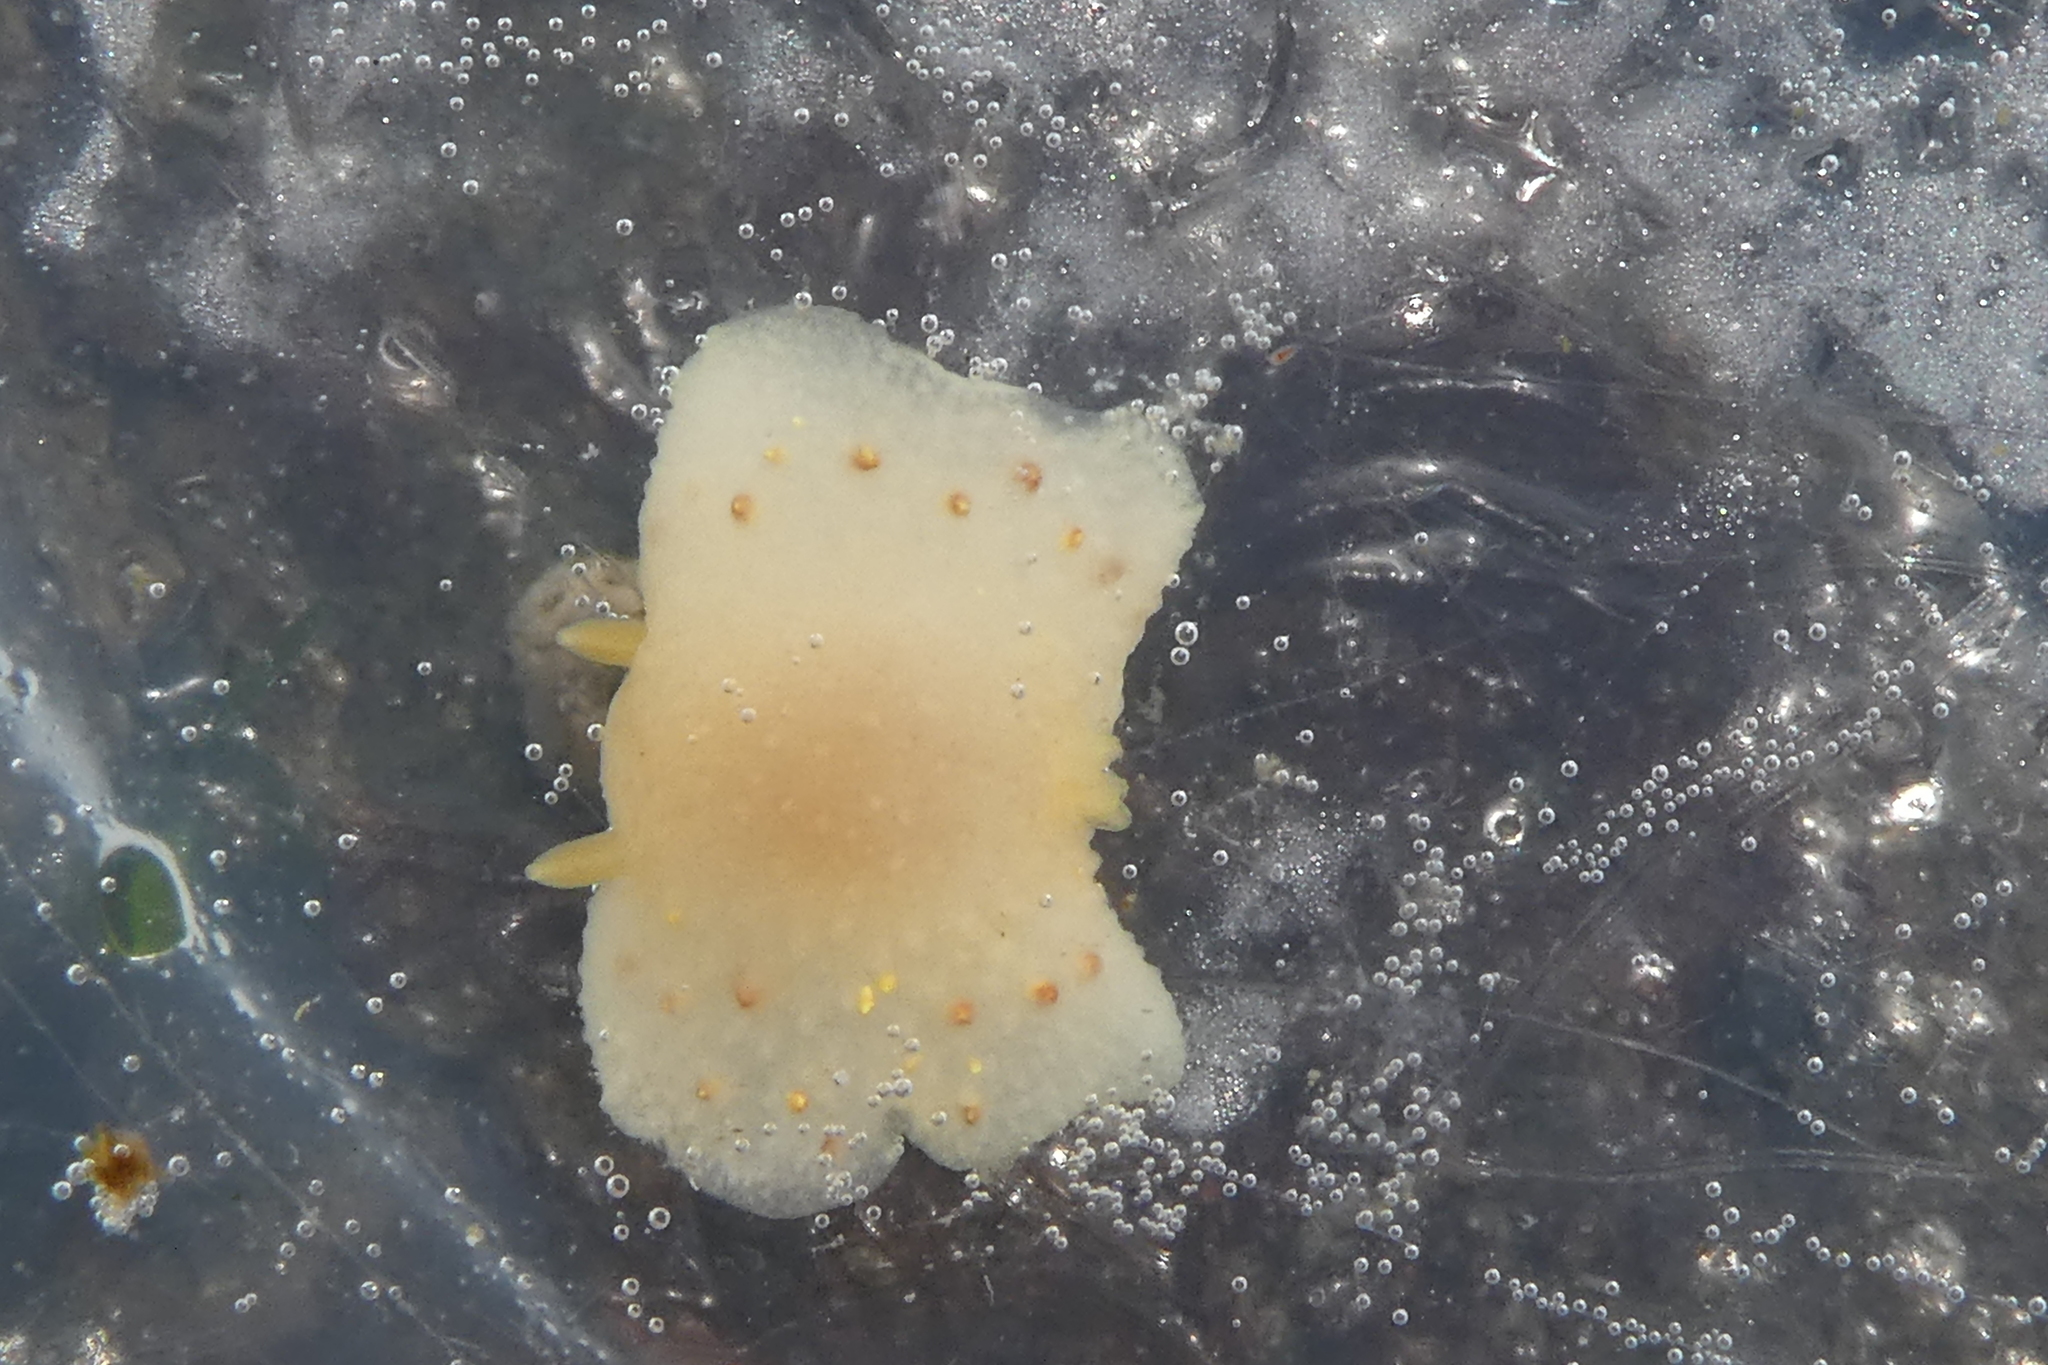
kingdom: Animalia
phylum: Mollusca
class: Gastropoda
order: Nudibranchia
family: Cadlinidae
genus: Cadlina
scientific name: Cadlina sparsa
